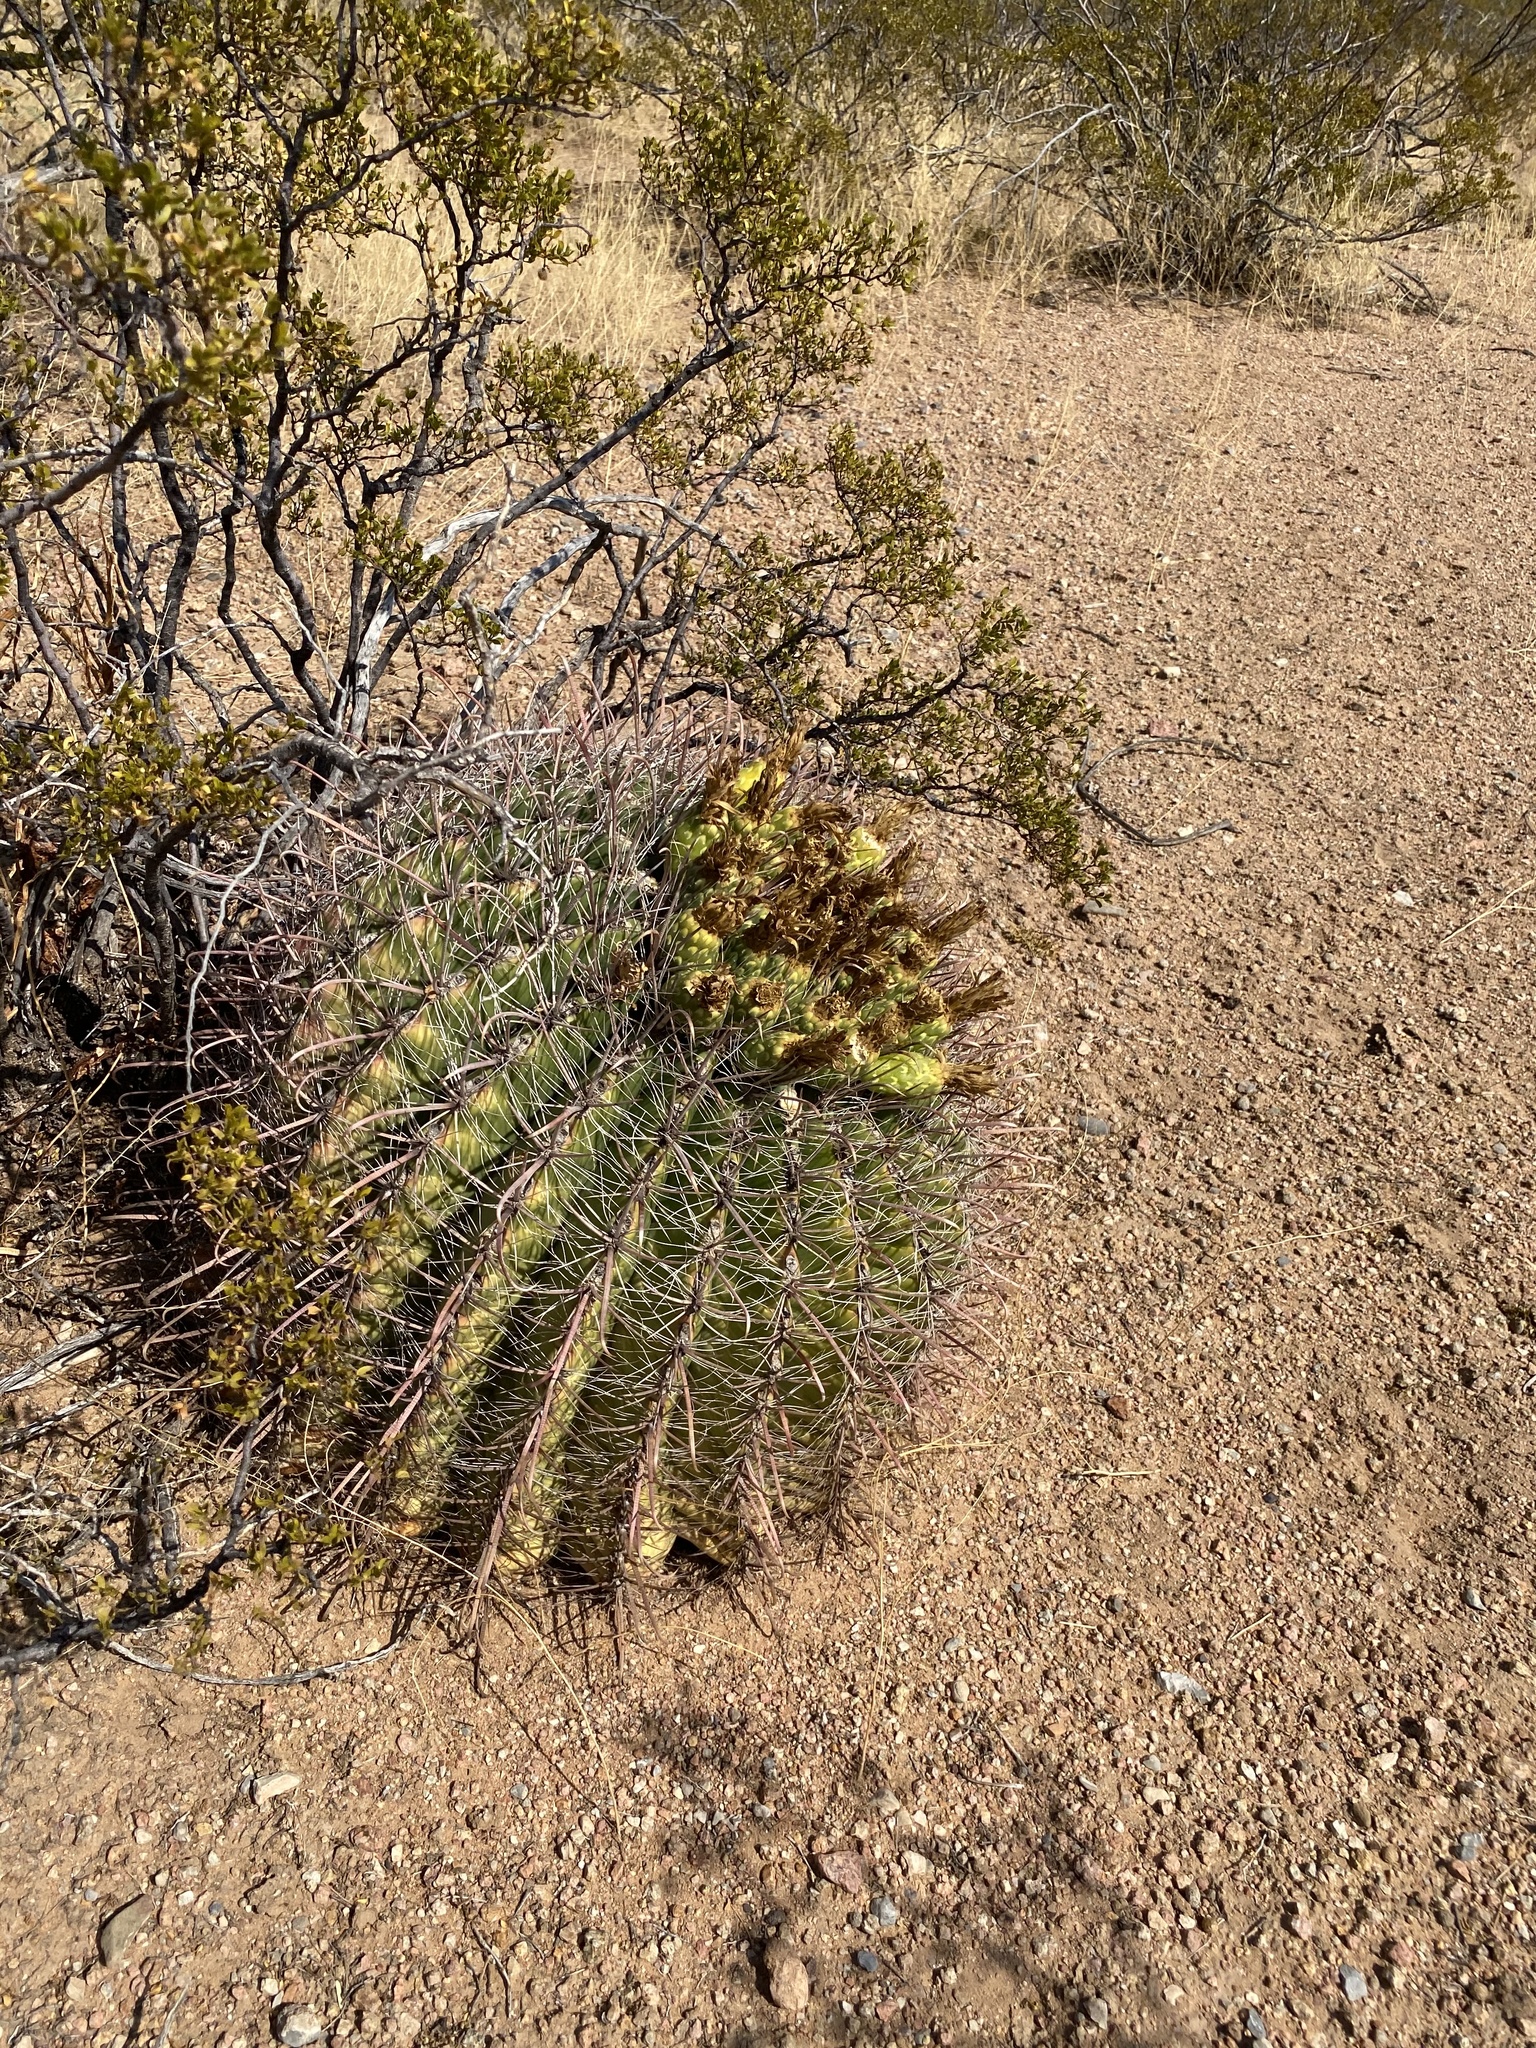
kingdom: Plantae
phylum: Tracheophyta
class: Magnoliopsida
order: Caryophyllales
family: Cactaceae
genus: Ferocactus
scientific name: Ferocactus wislizeni
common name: Candy barrel cactus
